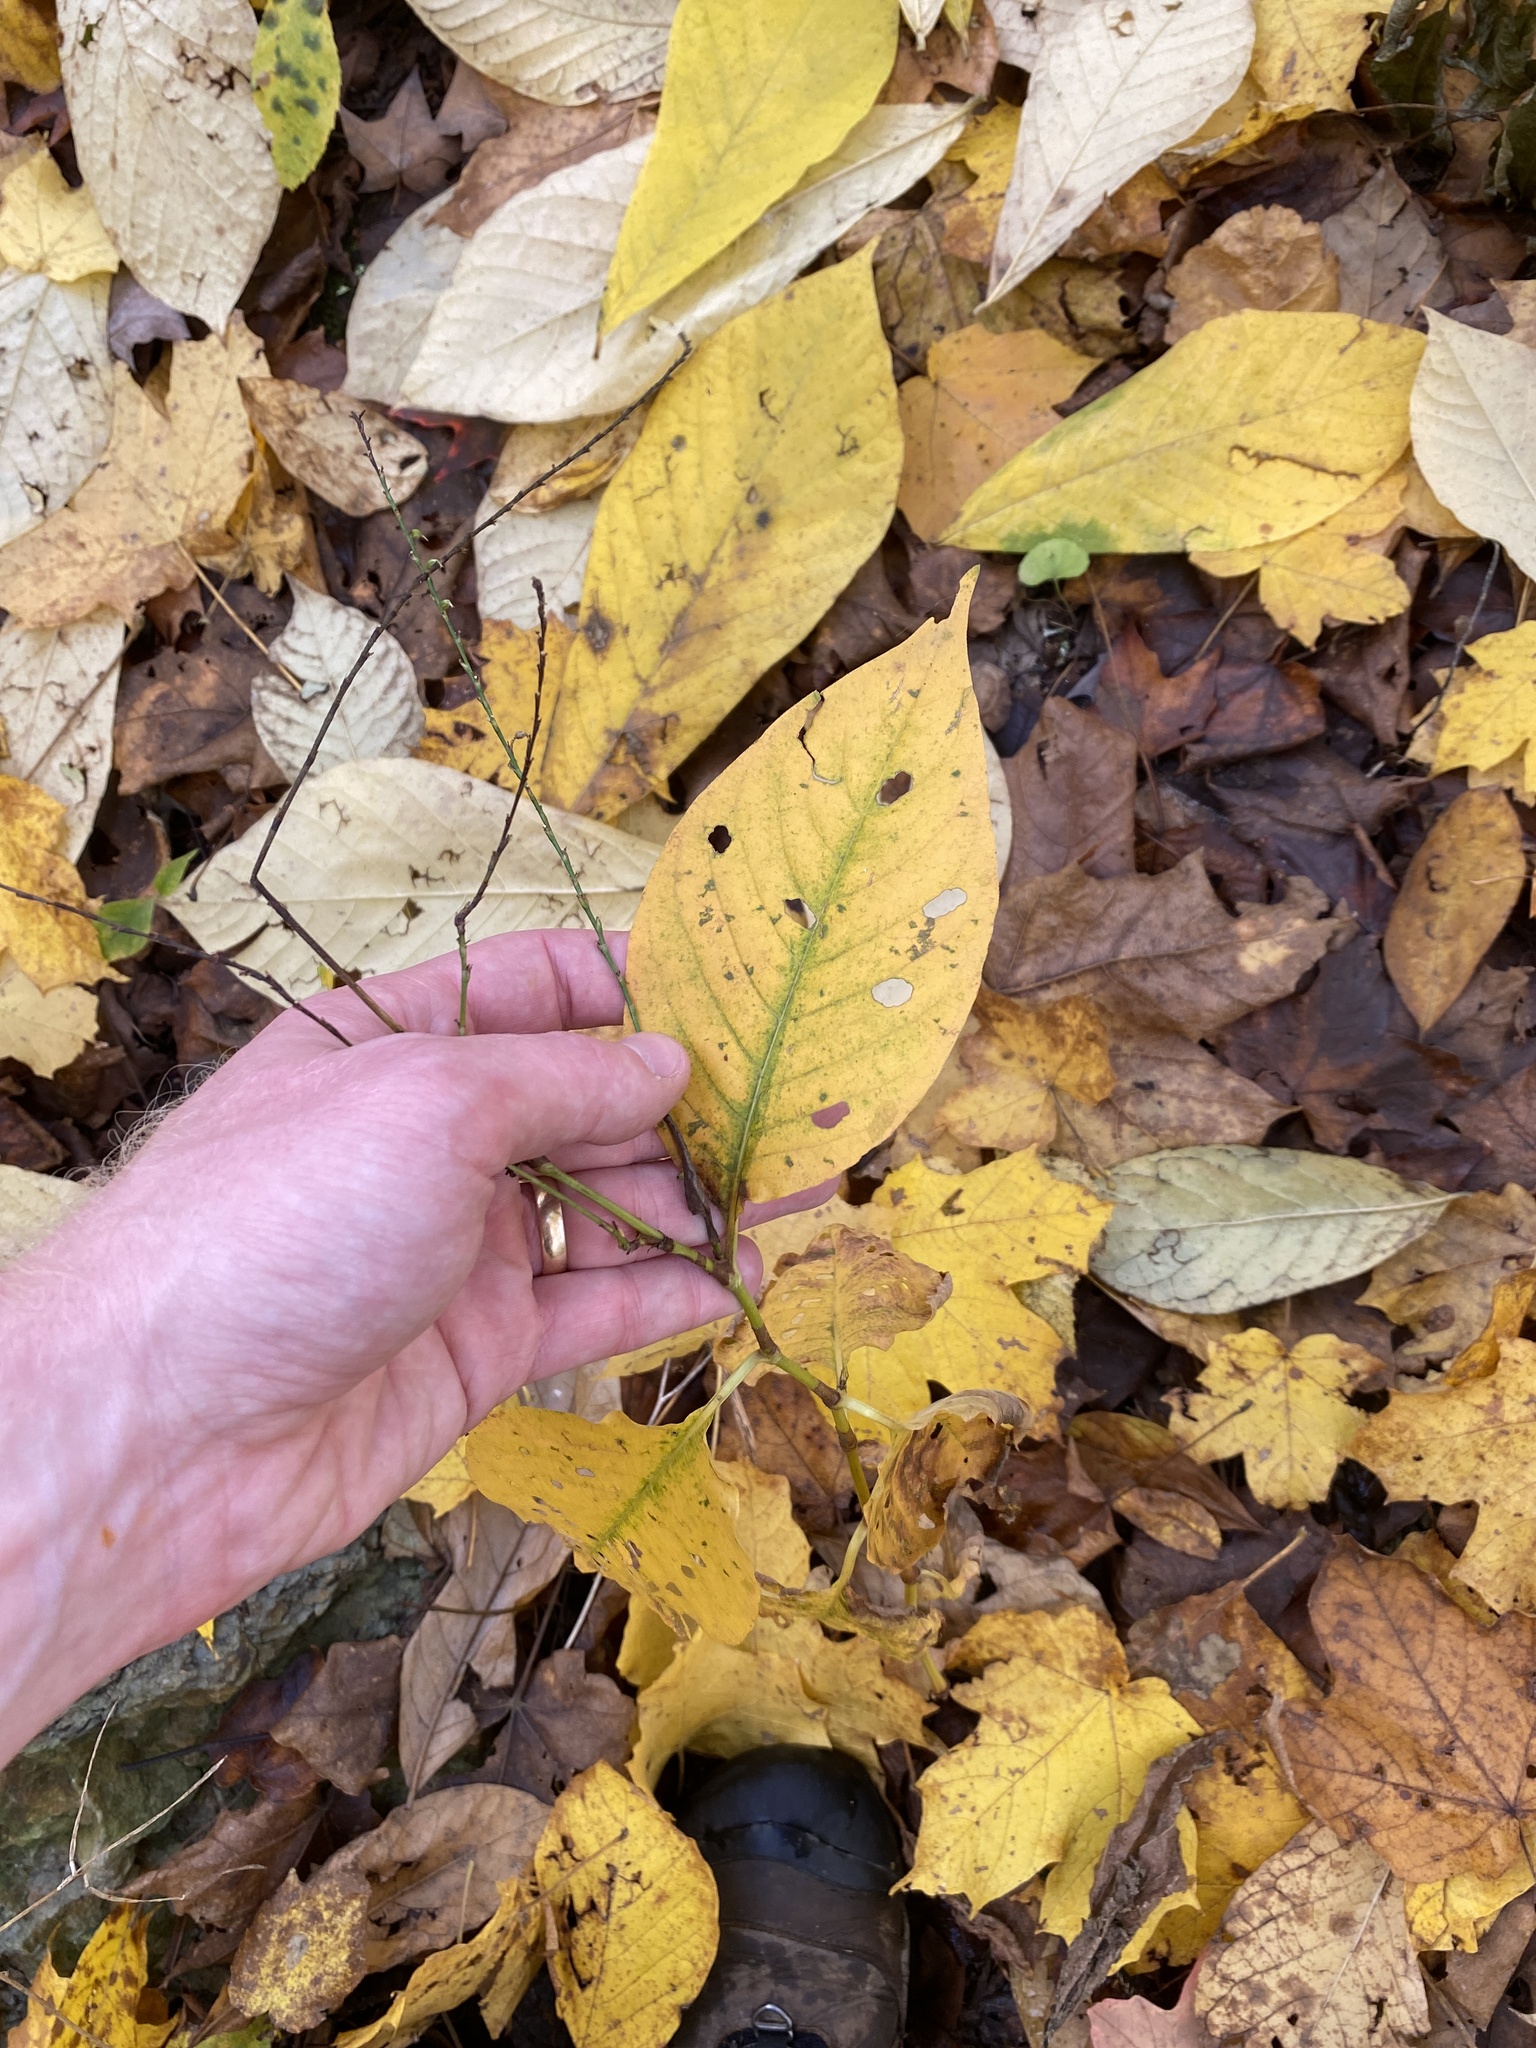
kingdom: Plantae
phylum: Tracheophyta
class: Magnoliopsida
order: Caryophyllales
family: Polygonaceae
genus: Persicaria
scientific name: Persicaria virginiana
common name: Jumpseed
